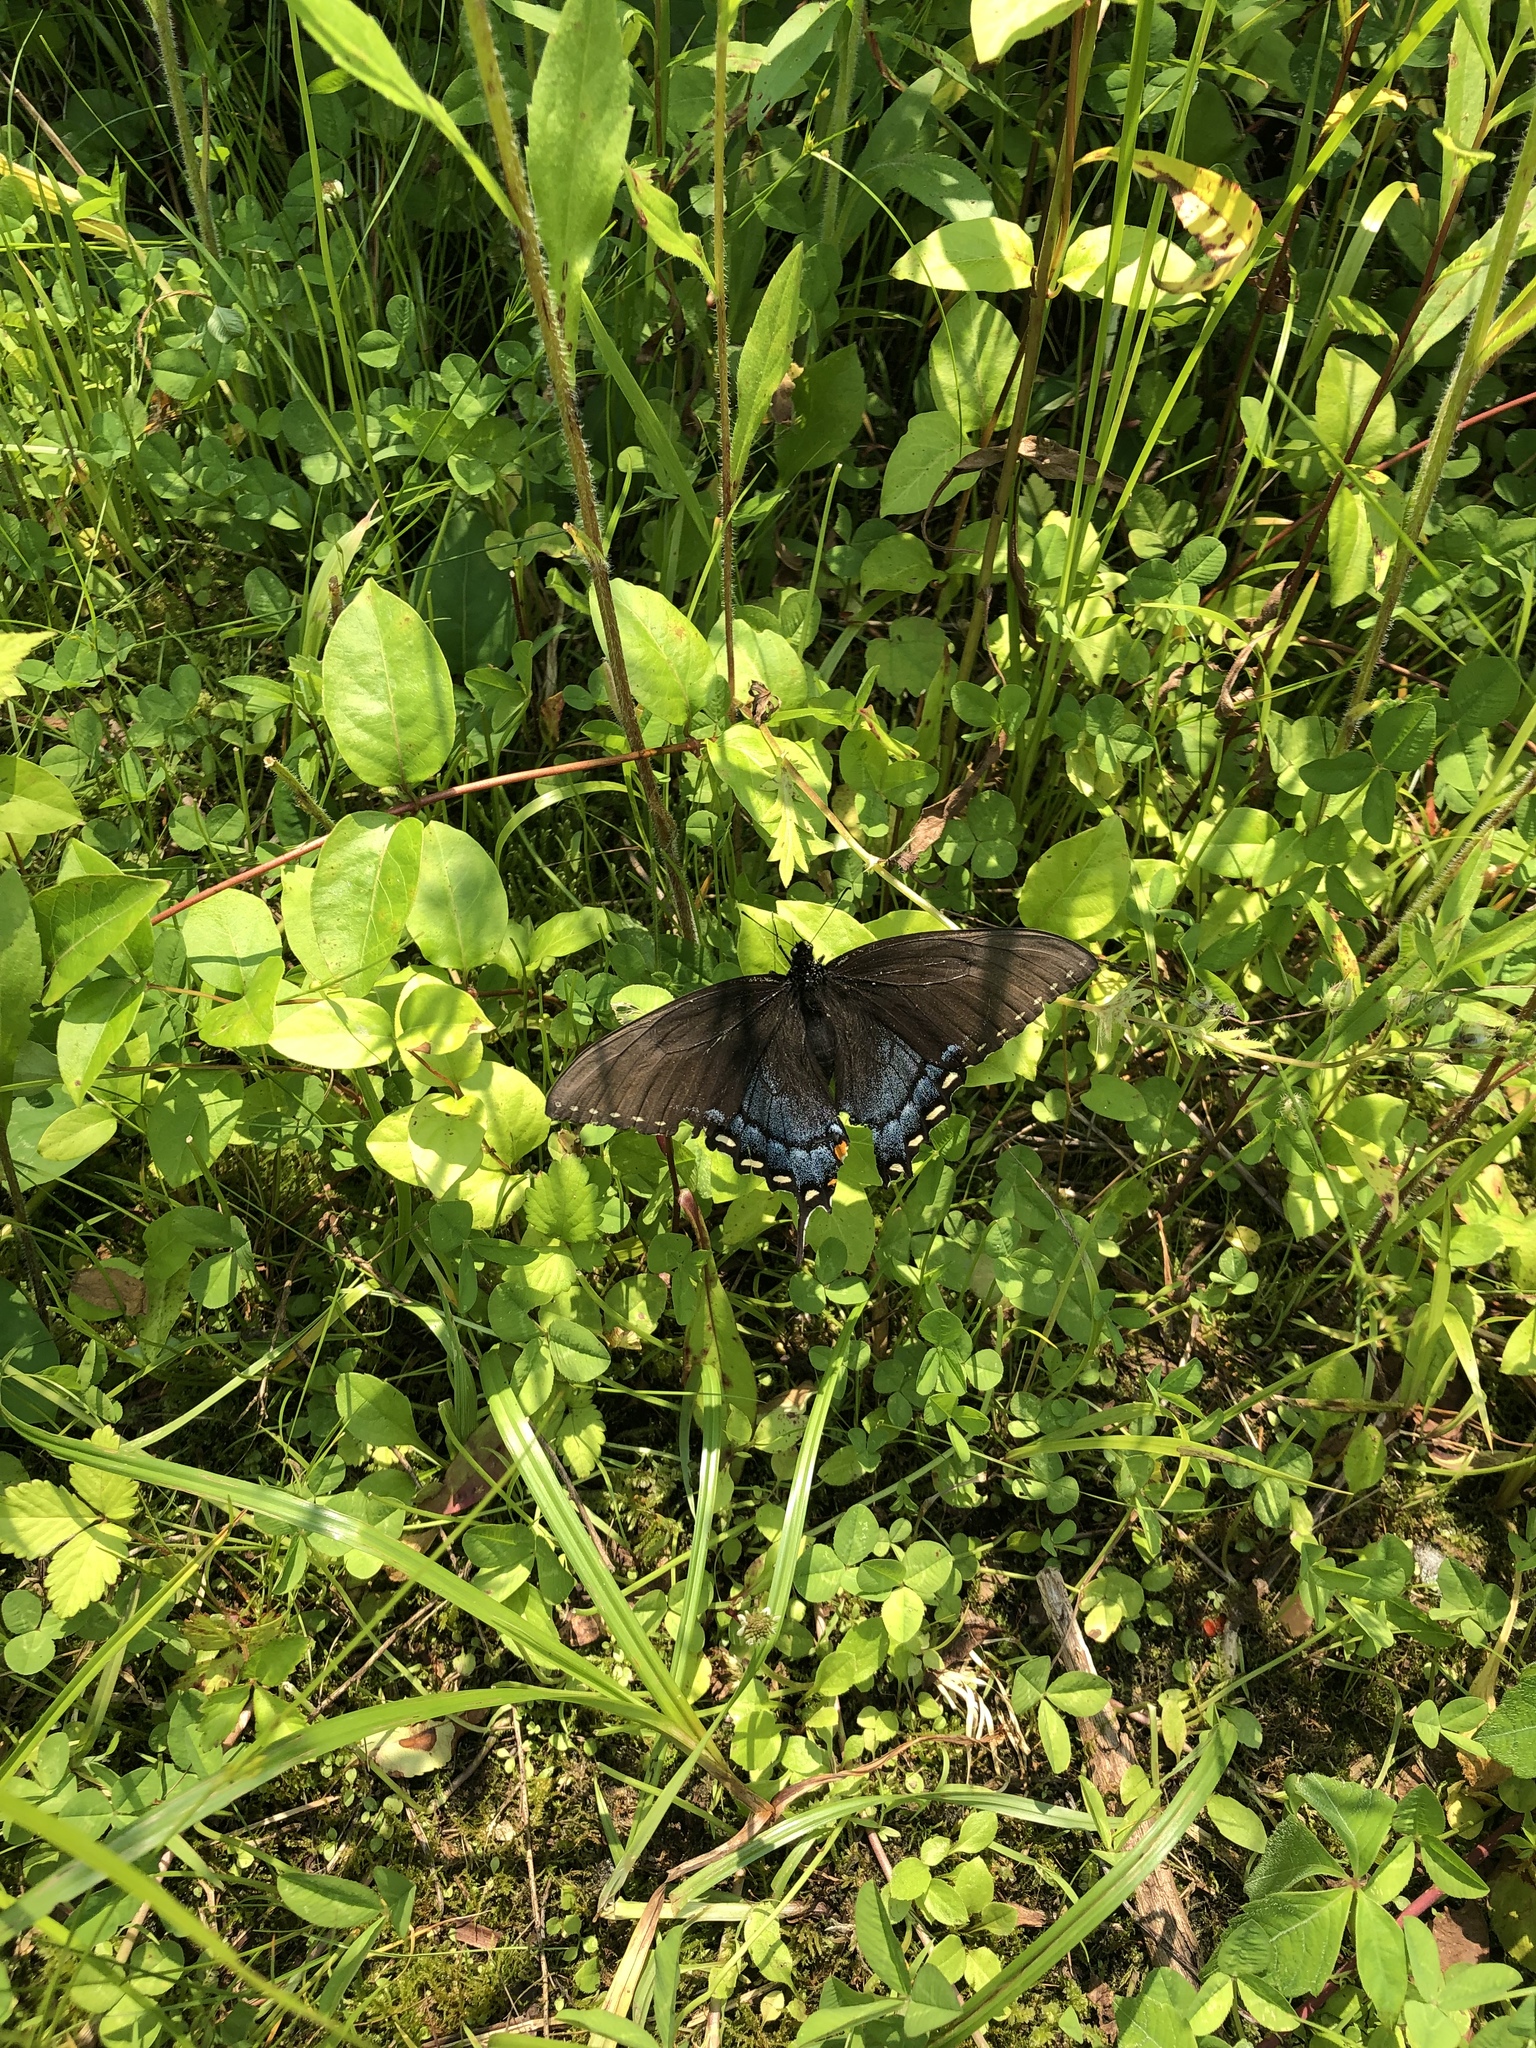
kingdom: Animalia
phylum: Arthropoda
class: Insecta
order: Lepidoptera
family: Papilionidae
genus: Papilio
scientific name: Papilio glaucus
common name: Tiger swallowtail
